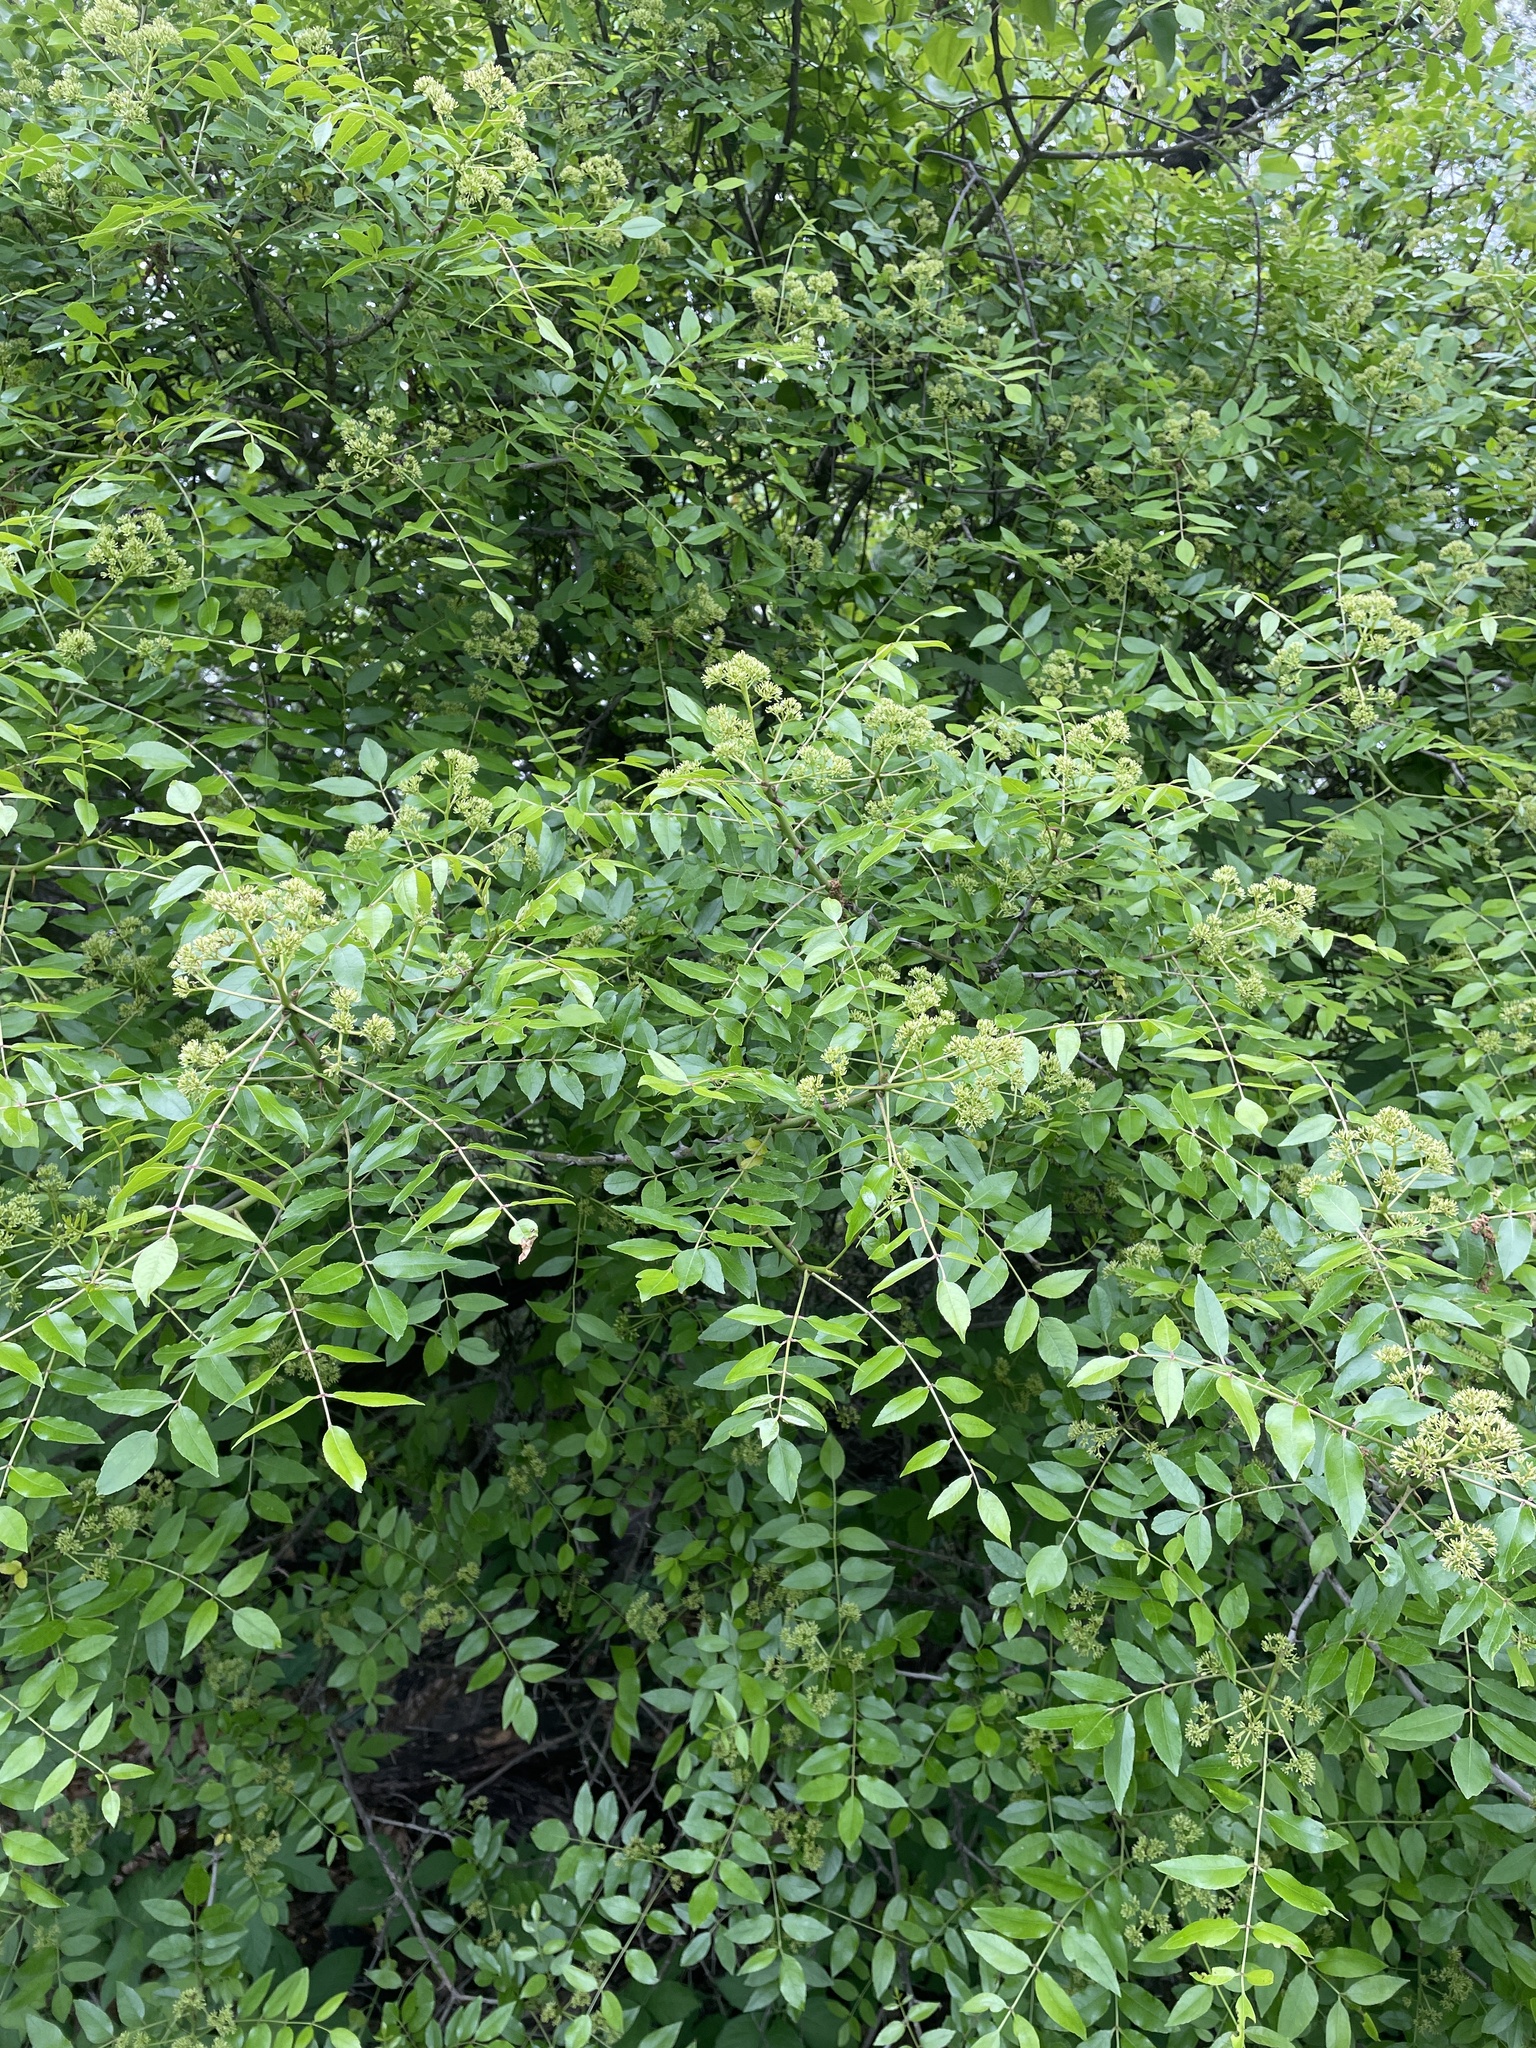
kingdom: Plantae
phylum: Tracheophyta
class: Magnoliopsida
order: Sapindales
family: Rutaceae
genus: Zanthoxylum
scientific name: Zanthoxylum clava-herculis
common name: Hercules'-club
